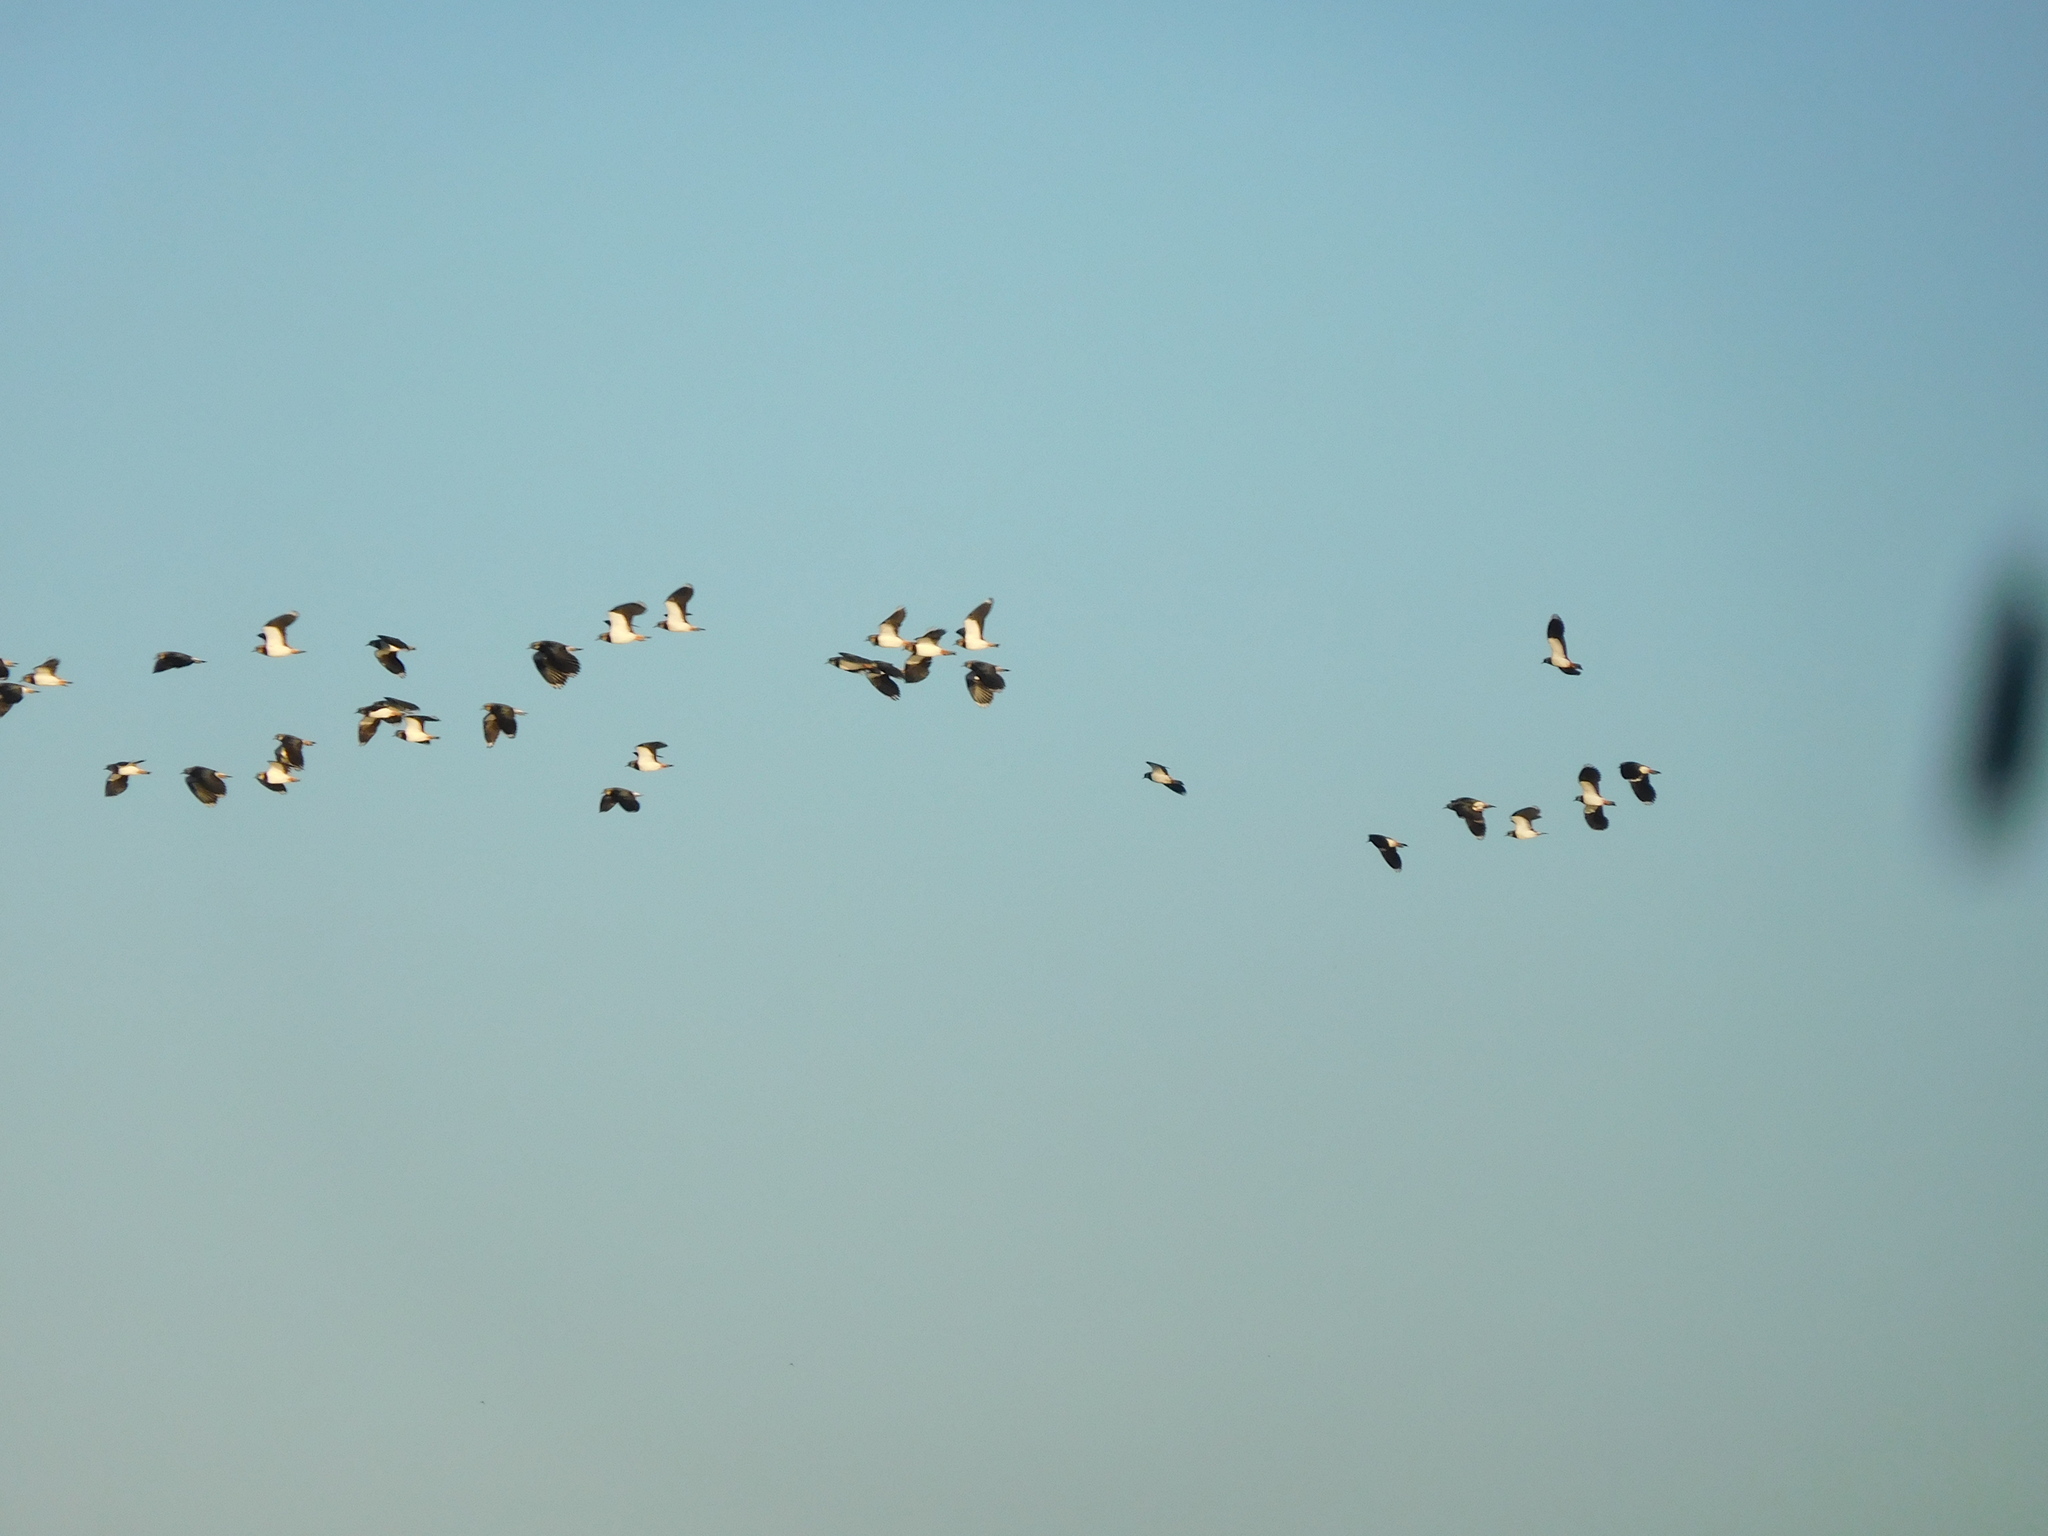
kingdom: Animalia
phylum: Chordata
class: Aves
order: Charadriiformes
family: Charadriidae
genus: Vanellus
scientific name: Vanellus vanellus
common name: Northern lapwing
